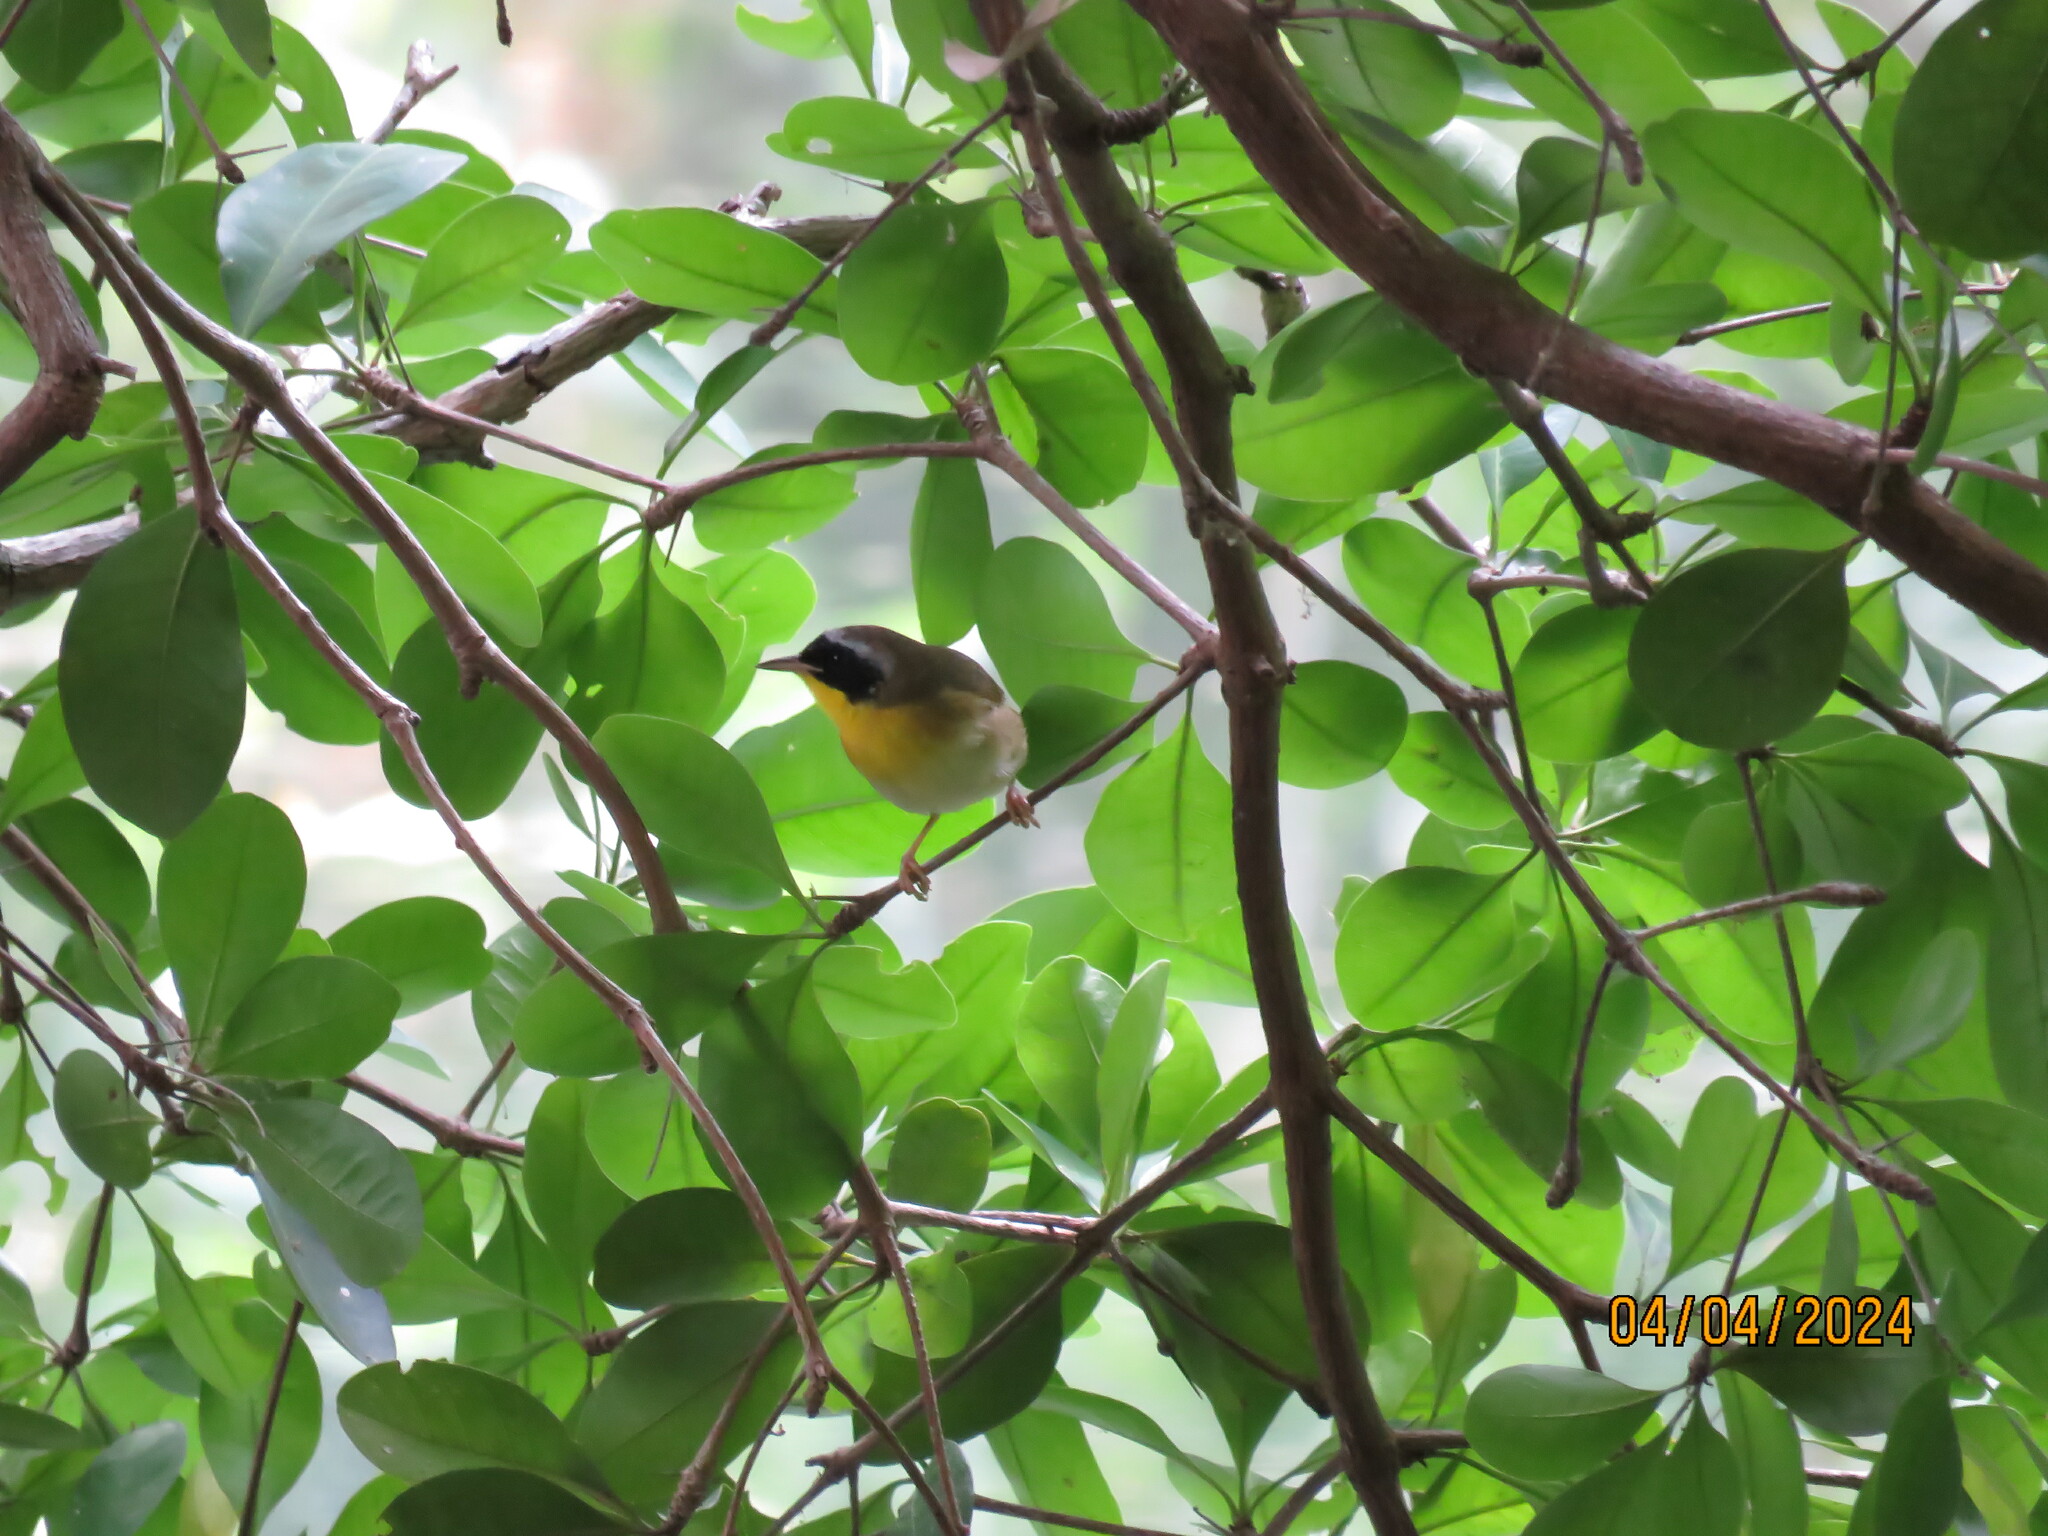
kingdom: Animalia
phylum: Chordata
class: Aves
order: Passeriformes
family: Parulidae
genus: Geothlypis
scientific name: Geothlypis trichas
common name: Common yellowthroat
